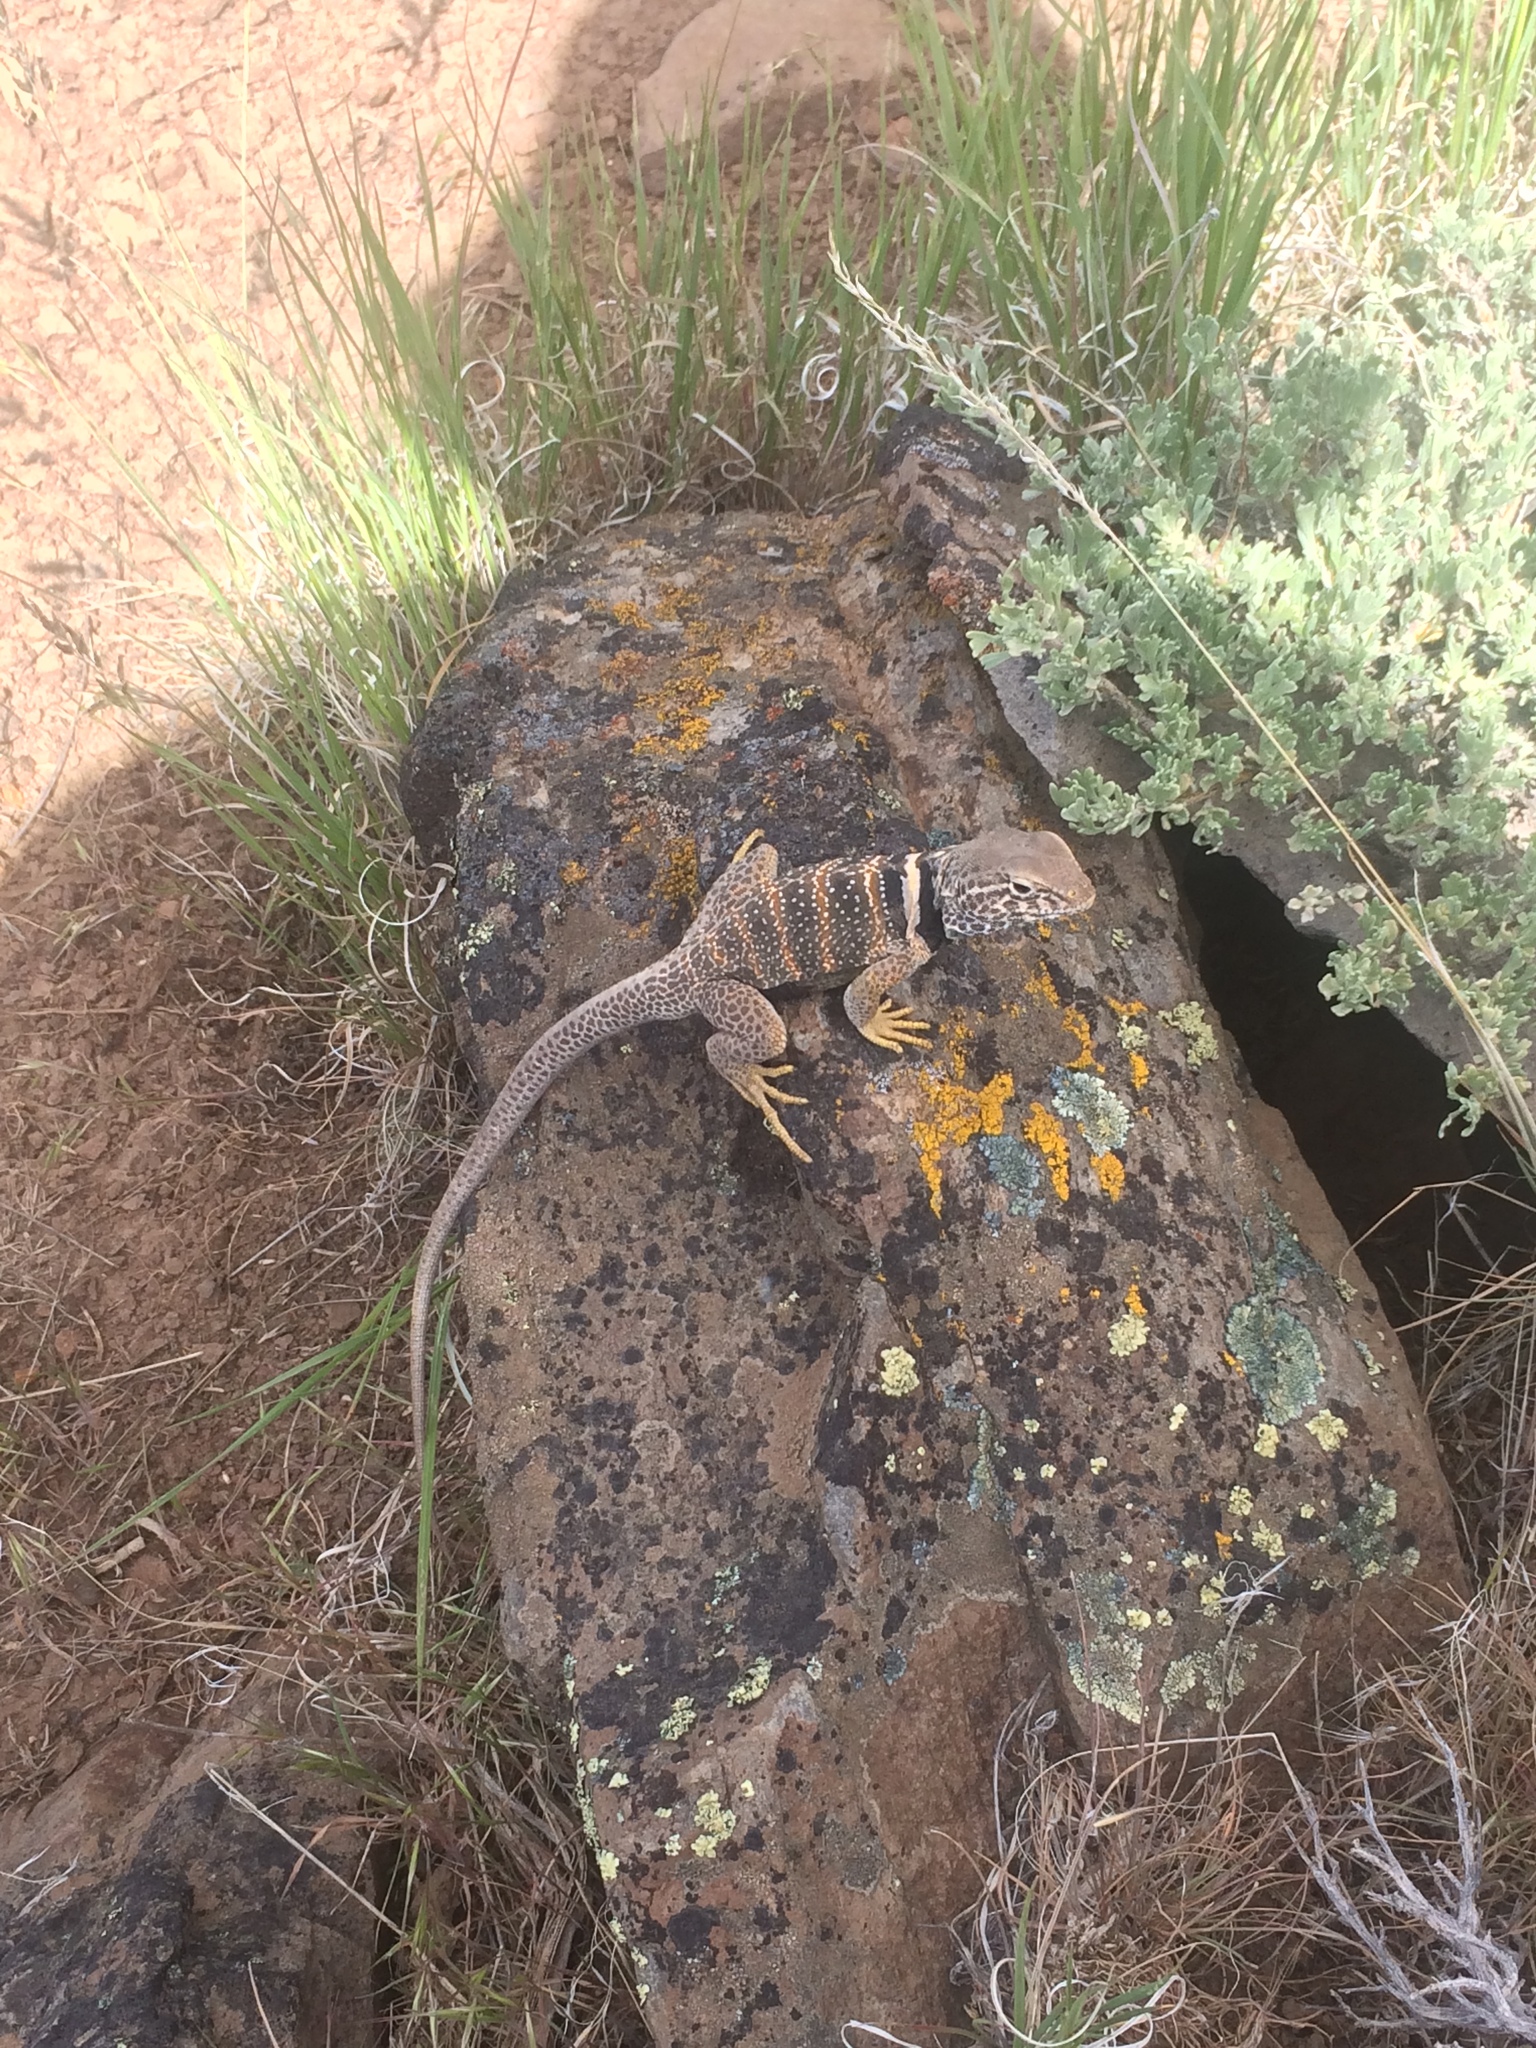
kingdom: Animalia
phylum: Chordata
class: Squamata
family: Crotaphytidae
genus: Crotaphytus
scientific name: Crotaphytus bicinctores
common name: Mojave black-collared lizard
